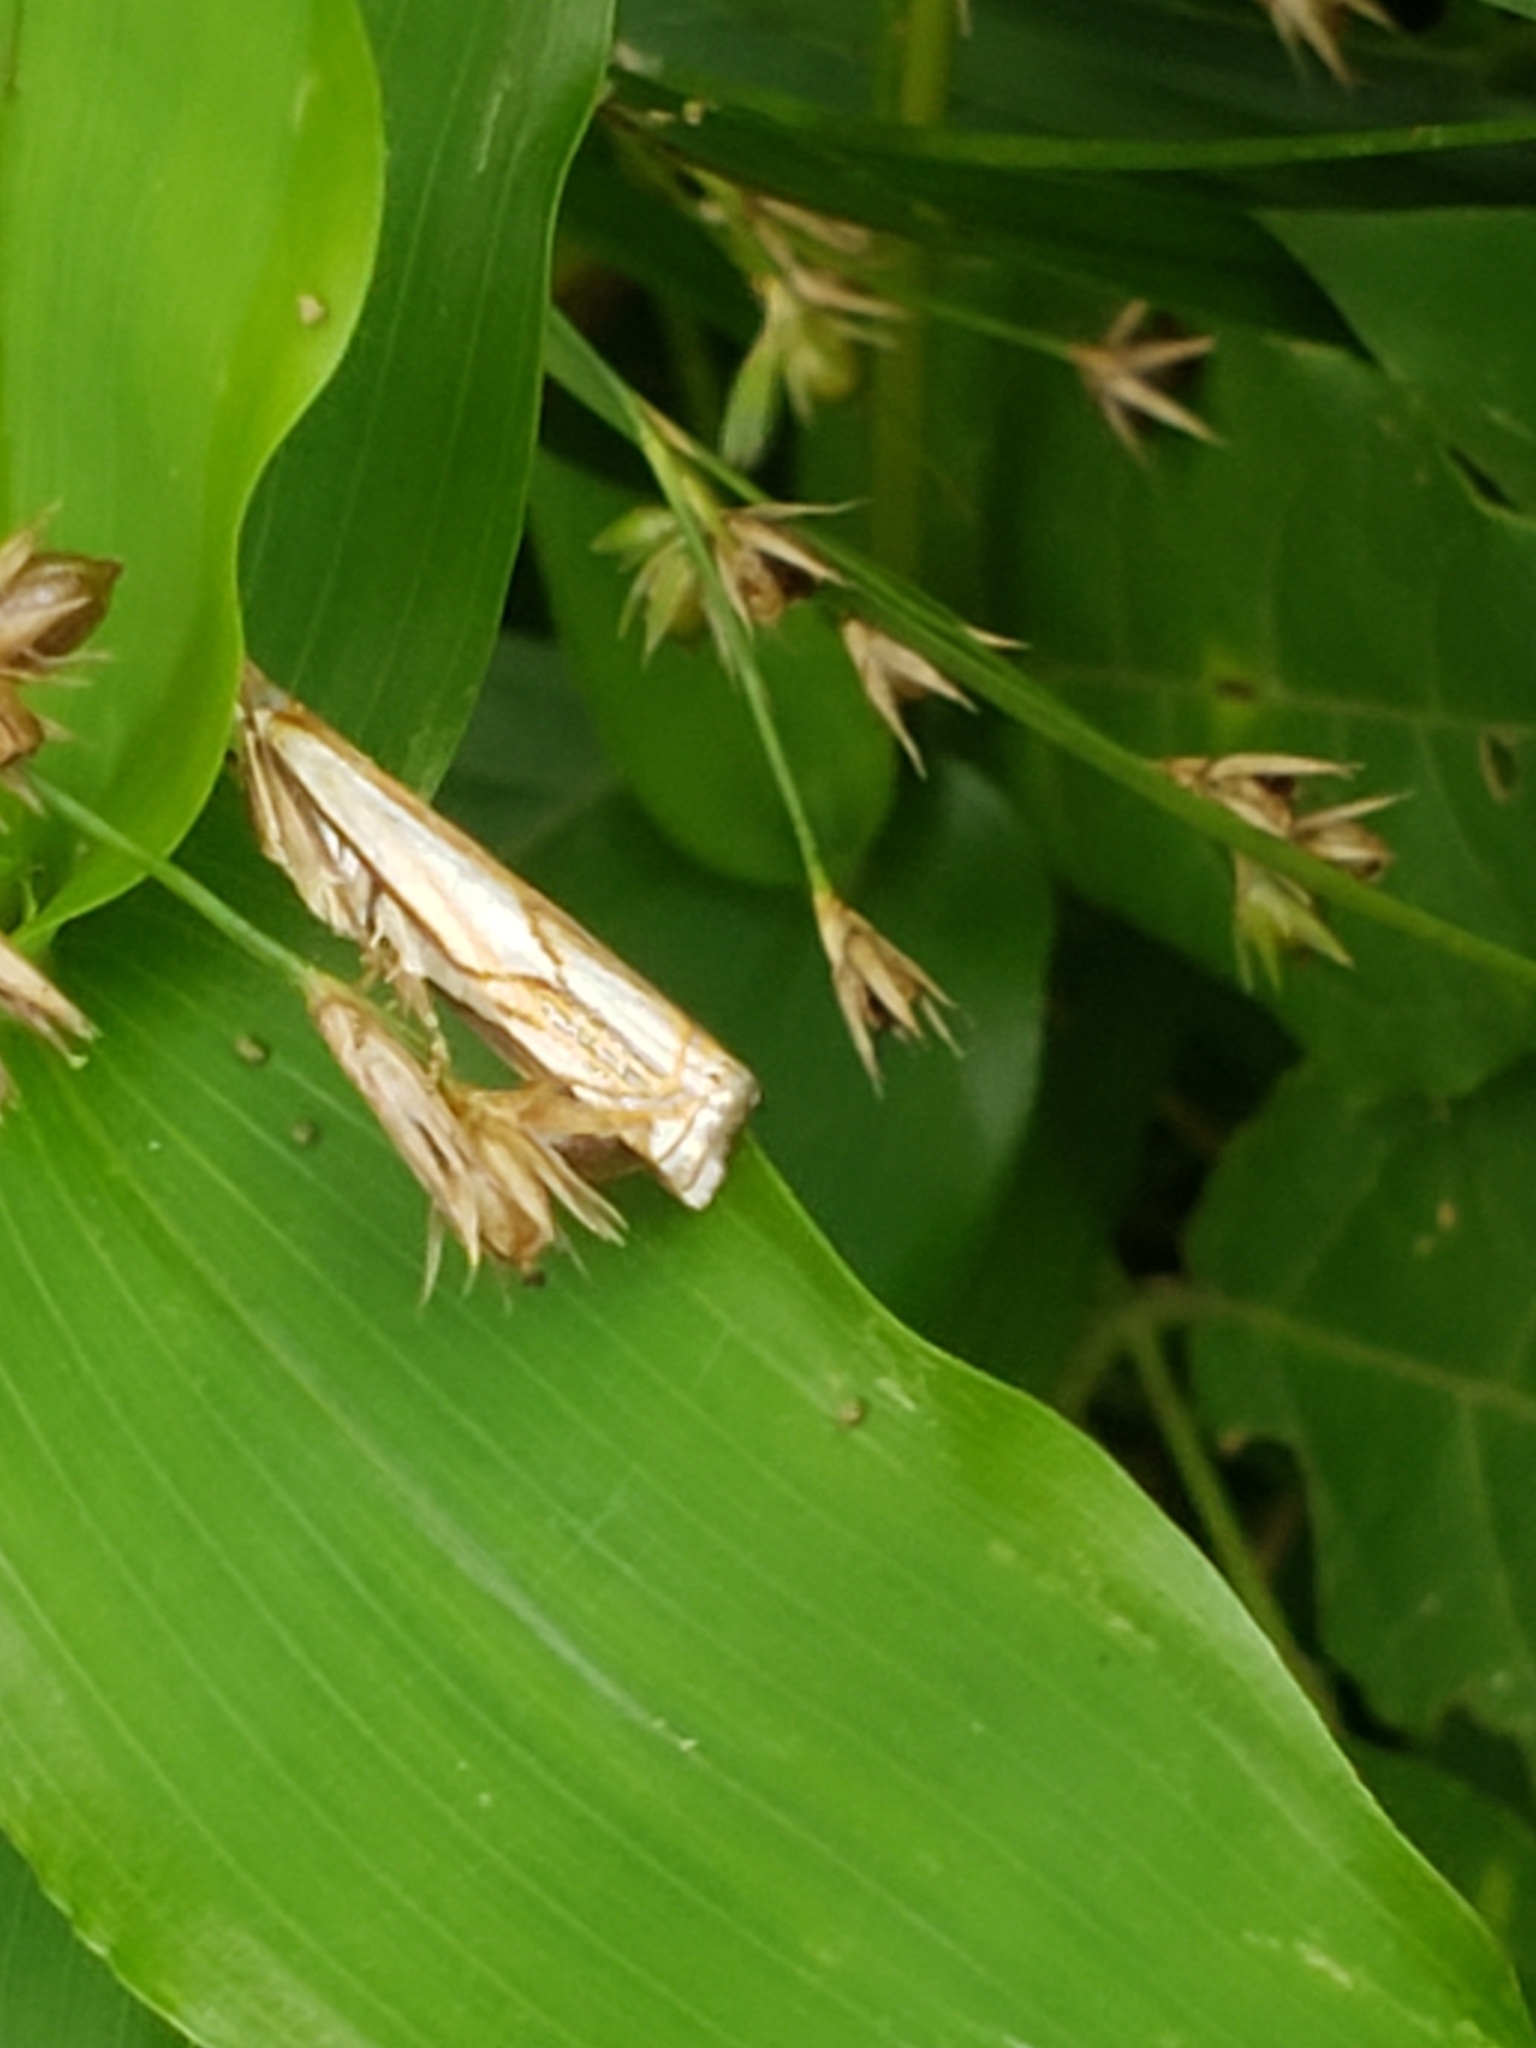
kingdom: Animalia
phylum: Arthropoda
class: Insecta
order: Lepidoptera
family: Crambidae
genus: Crambus
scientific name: Crambus agitatellus
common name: Double-banded grass-veneer
